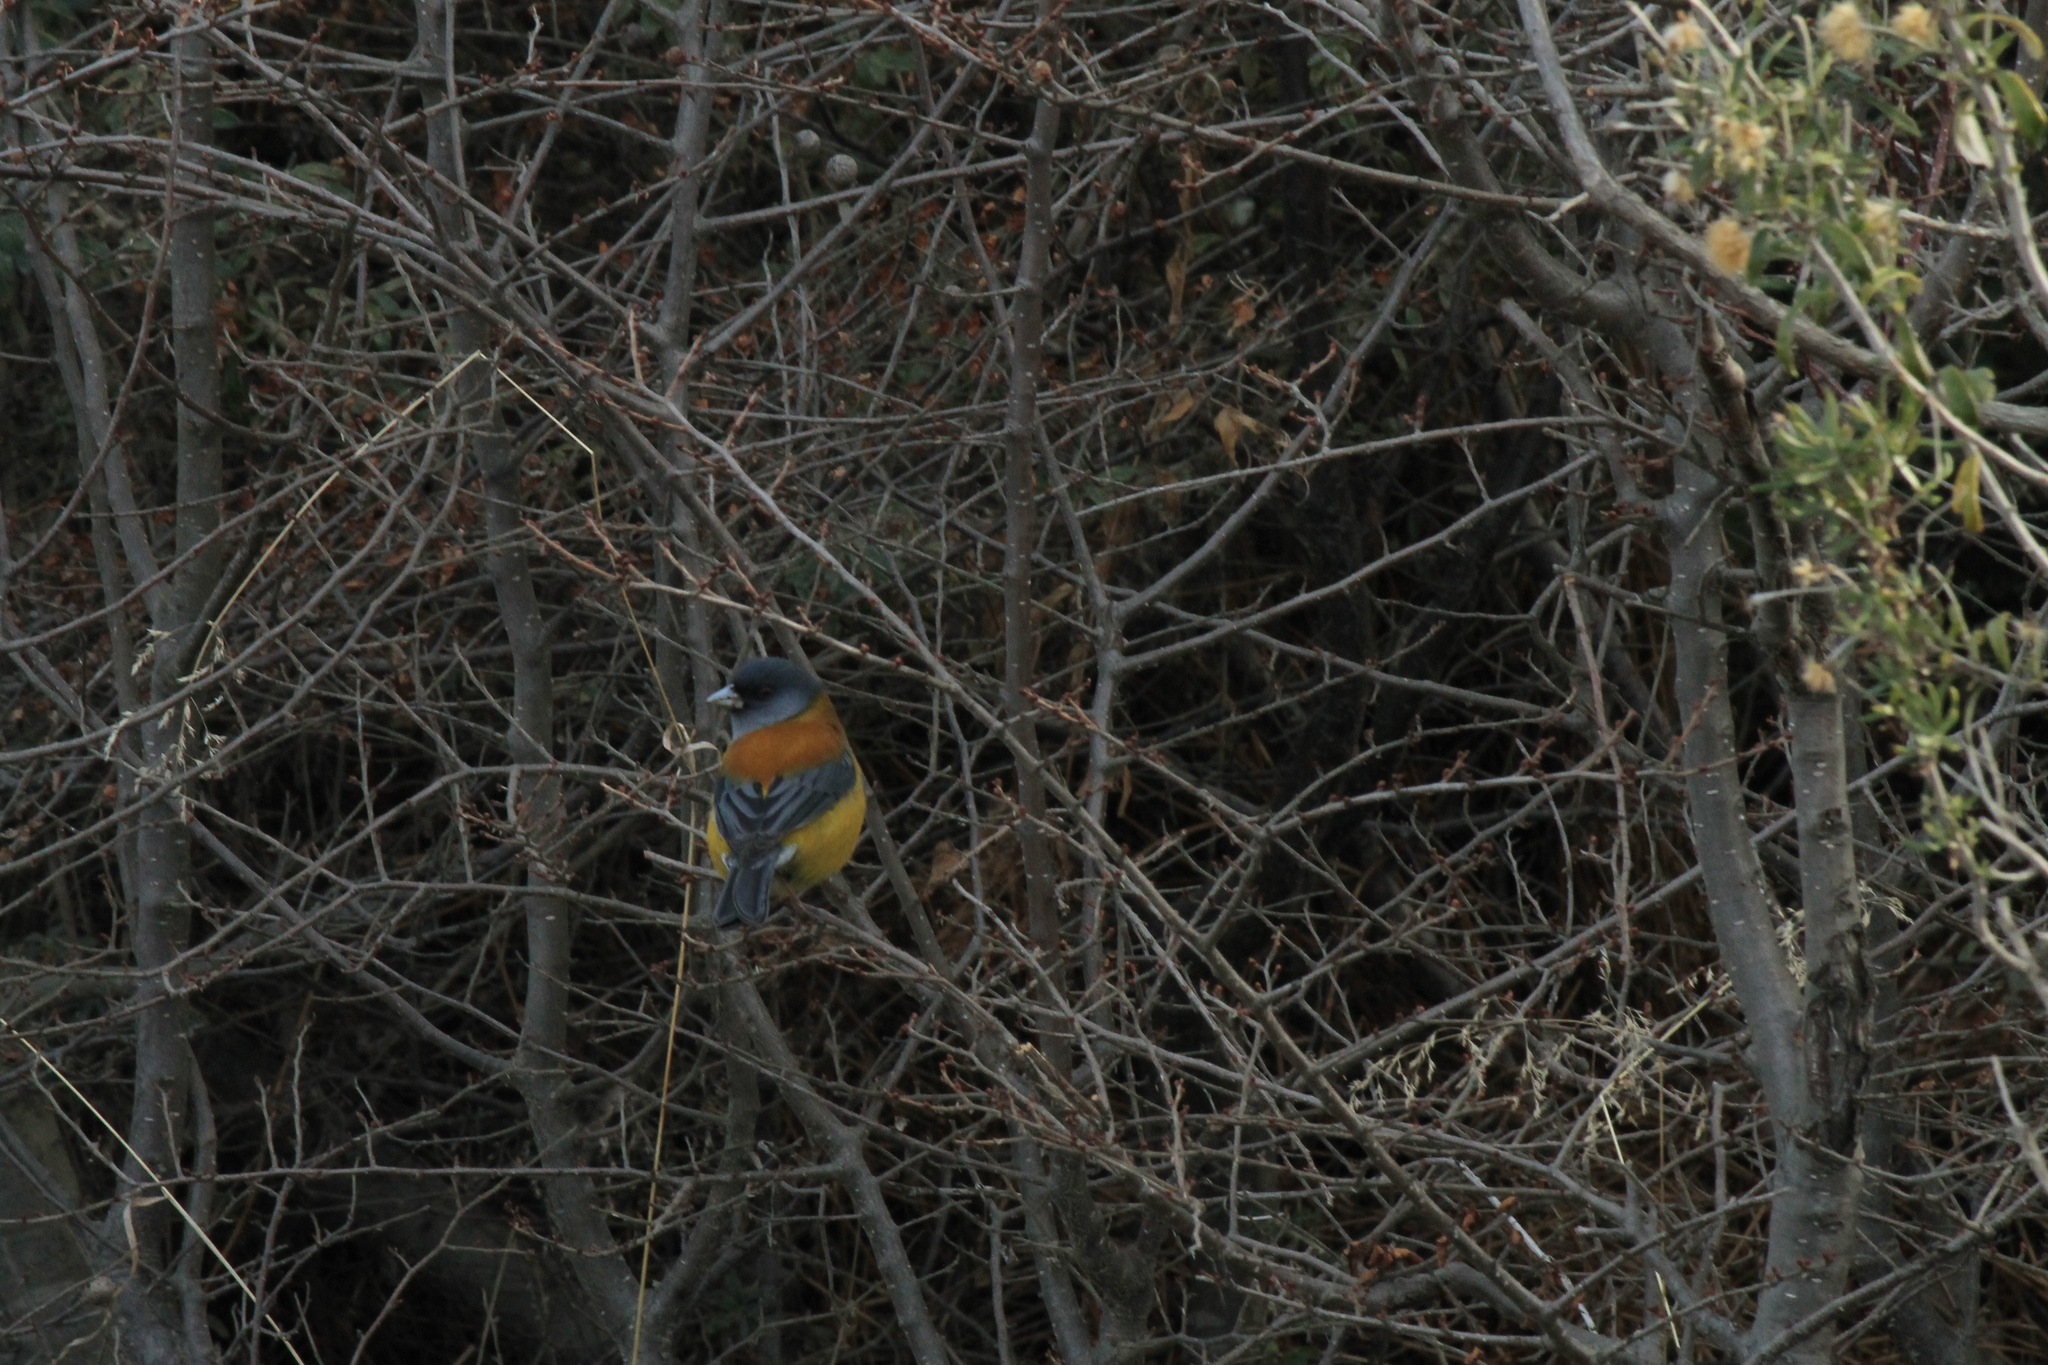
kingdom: Animalia
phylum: Chordata
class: Aves
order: Passeriformes
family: Thraupidae
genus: Phrygilus
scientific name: Phrygilus patagonicus
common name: Patagonian sierra finch
